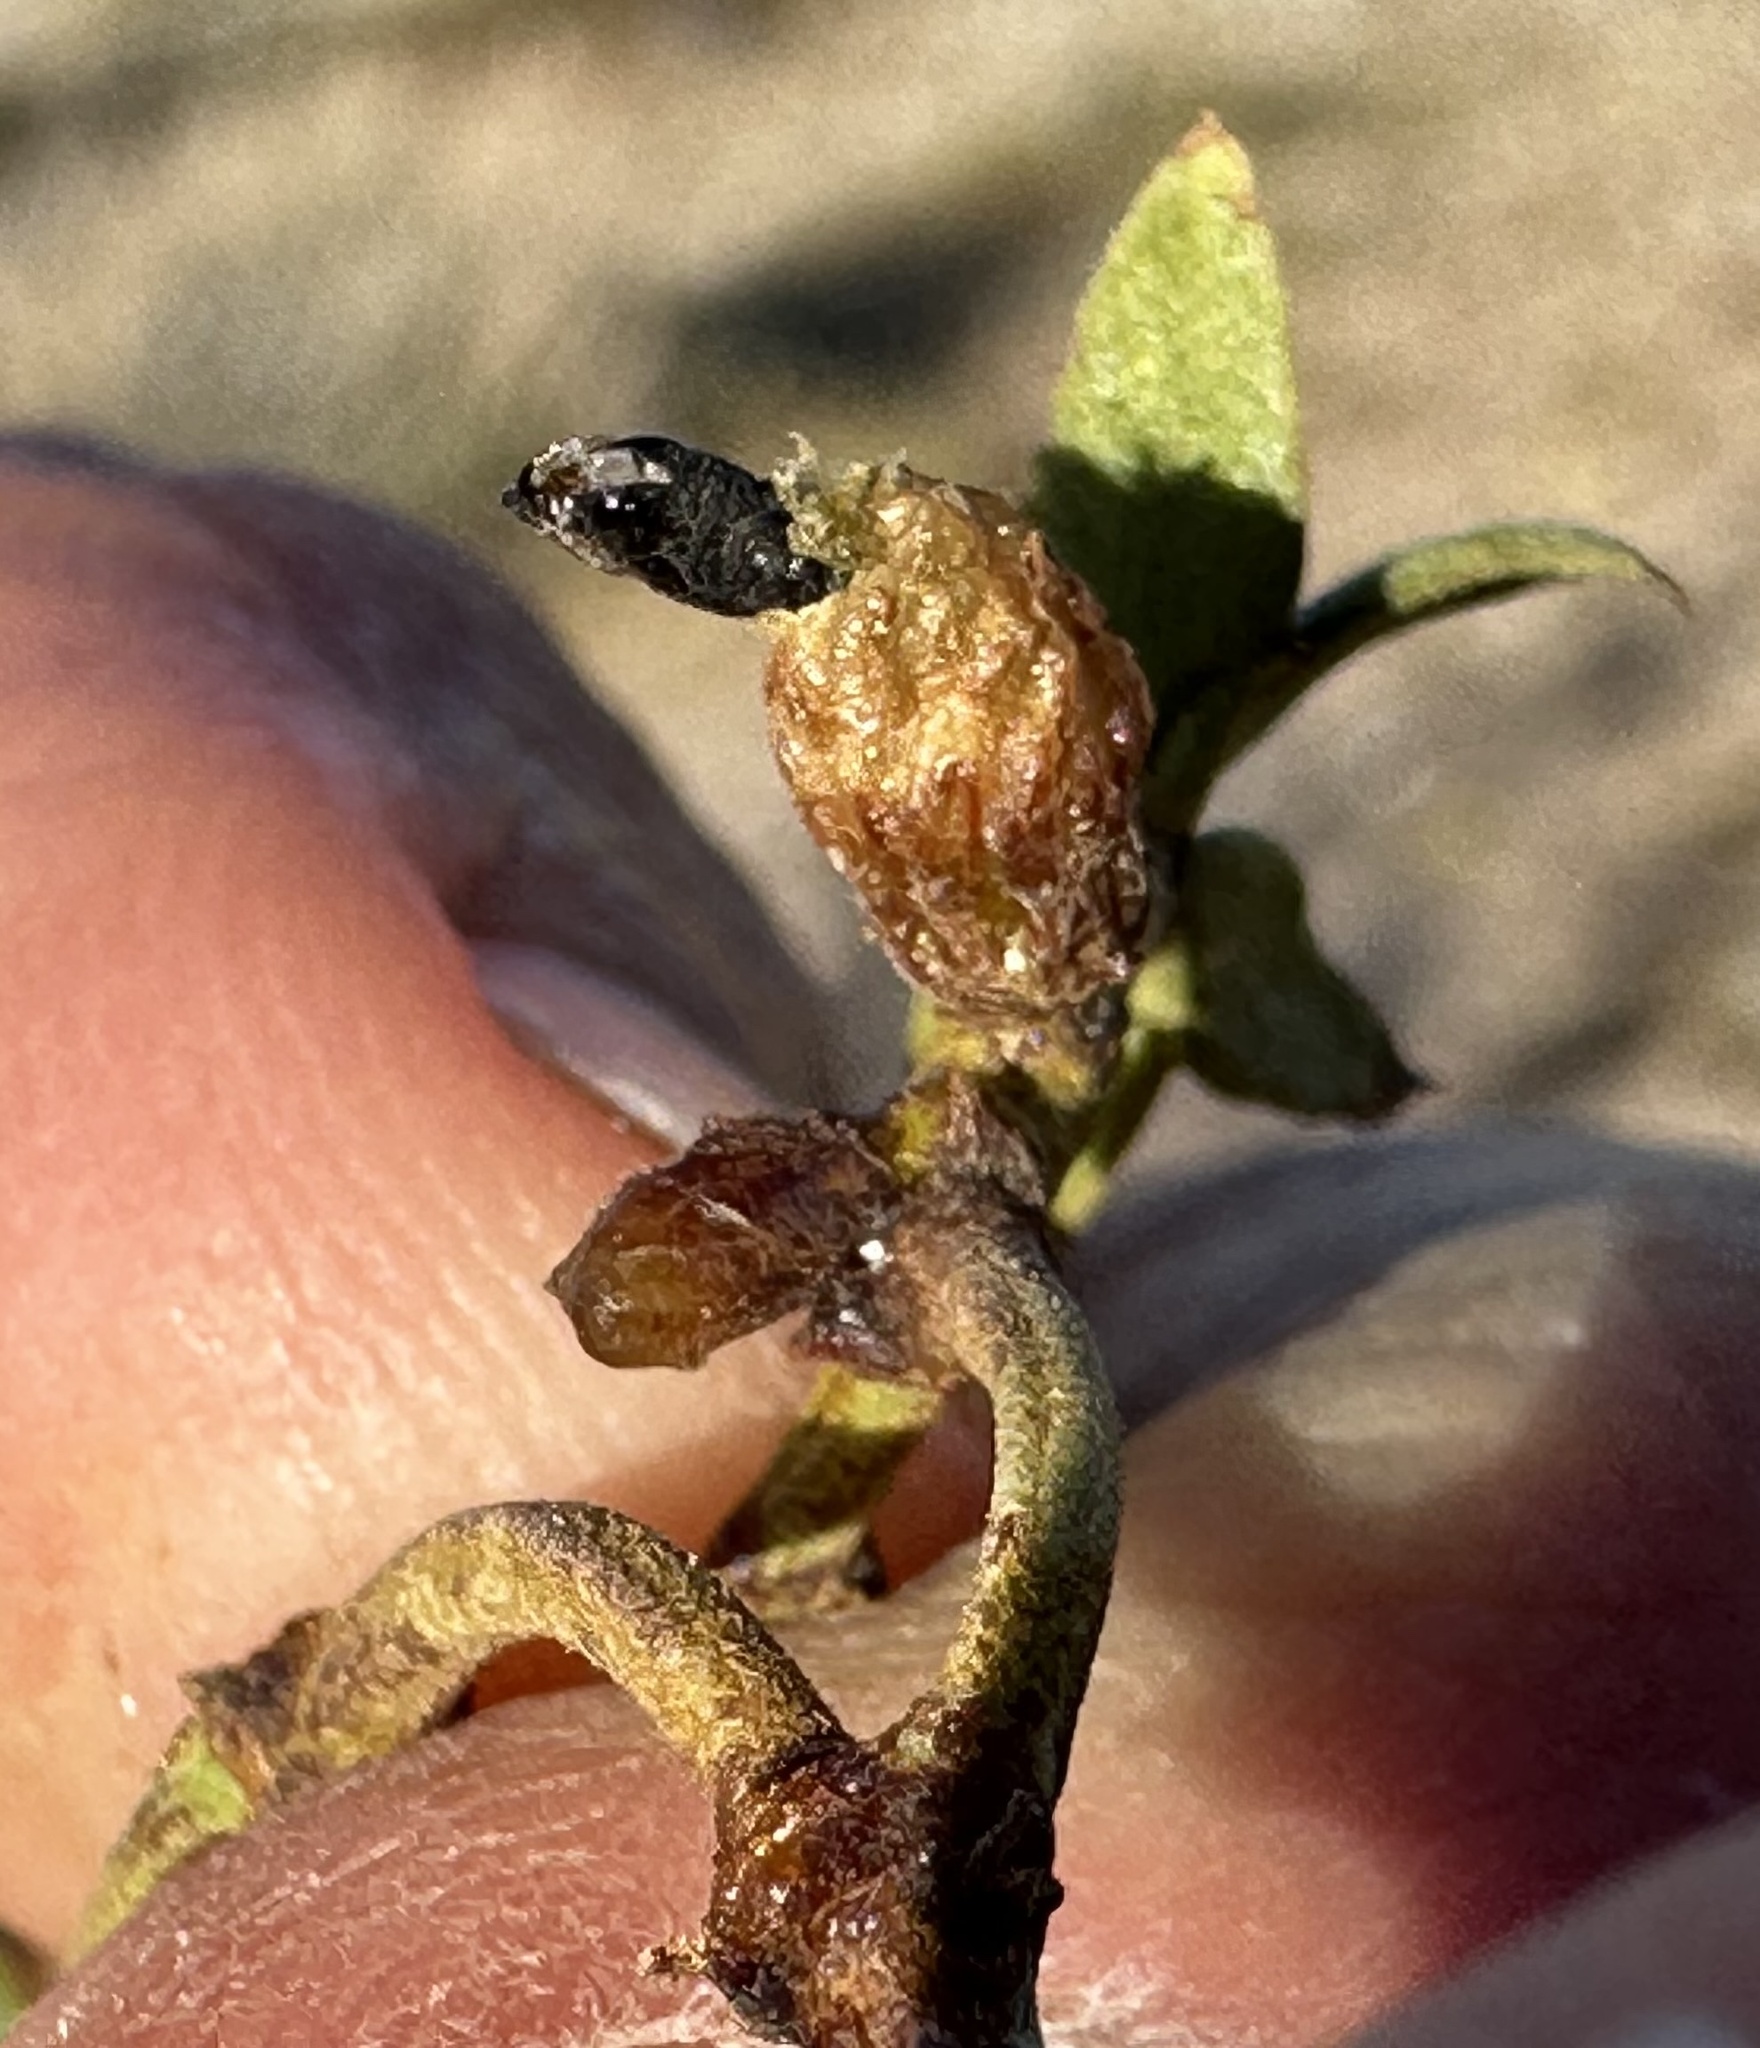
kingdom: Animalia
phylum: Arthropoda
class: Insecta
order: Diptera
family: Cecidomyiidae
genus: Asphondylia
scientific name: Asphondylia resinosa
